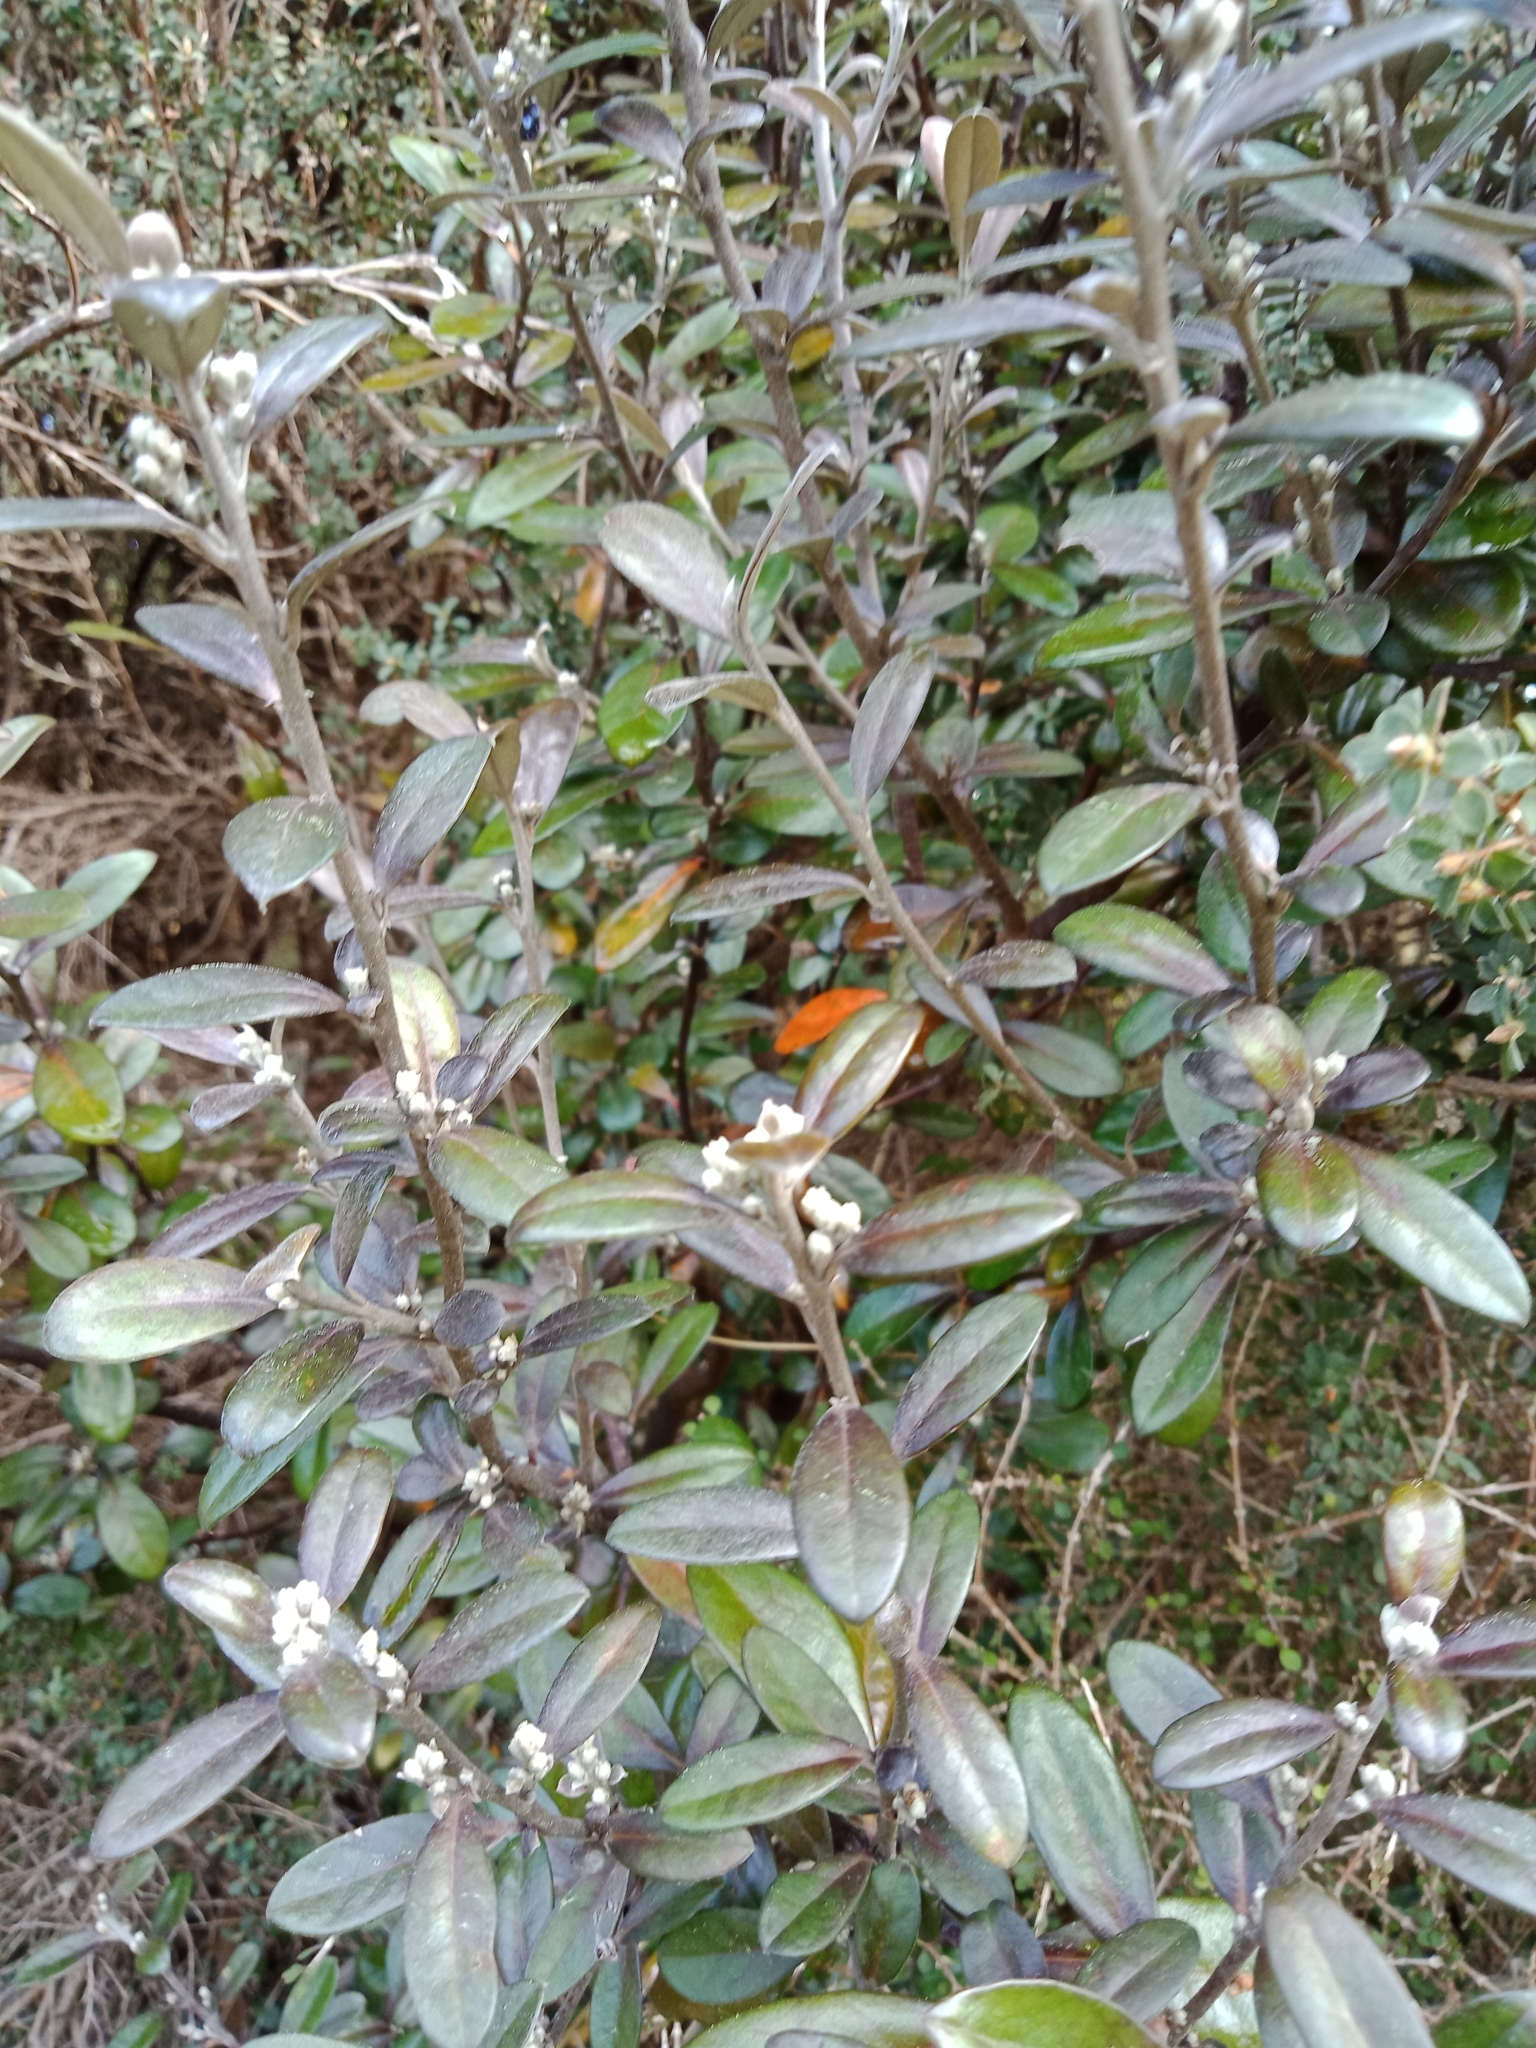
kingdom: Plantae
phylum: Tracheophyta
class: Magnoliopsida
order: Asterales
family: Argophyllaceae
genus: Corokia
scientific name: Corokia virgata
